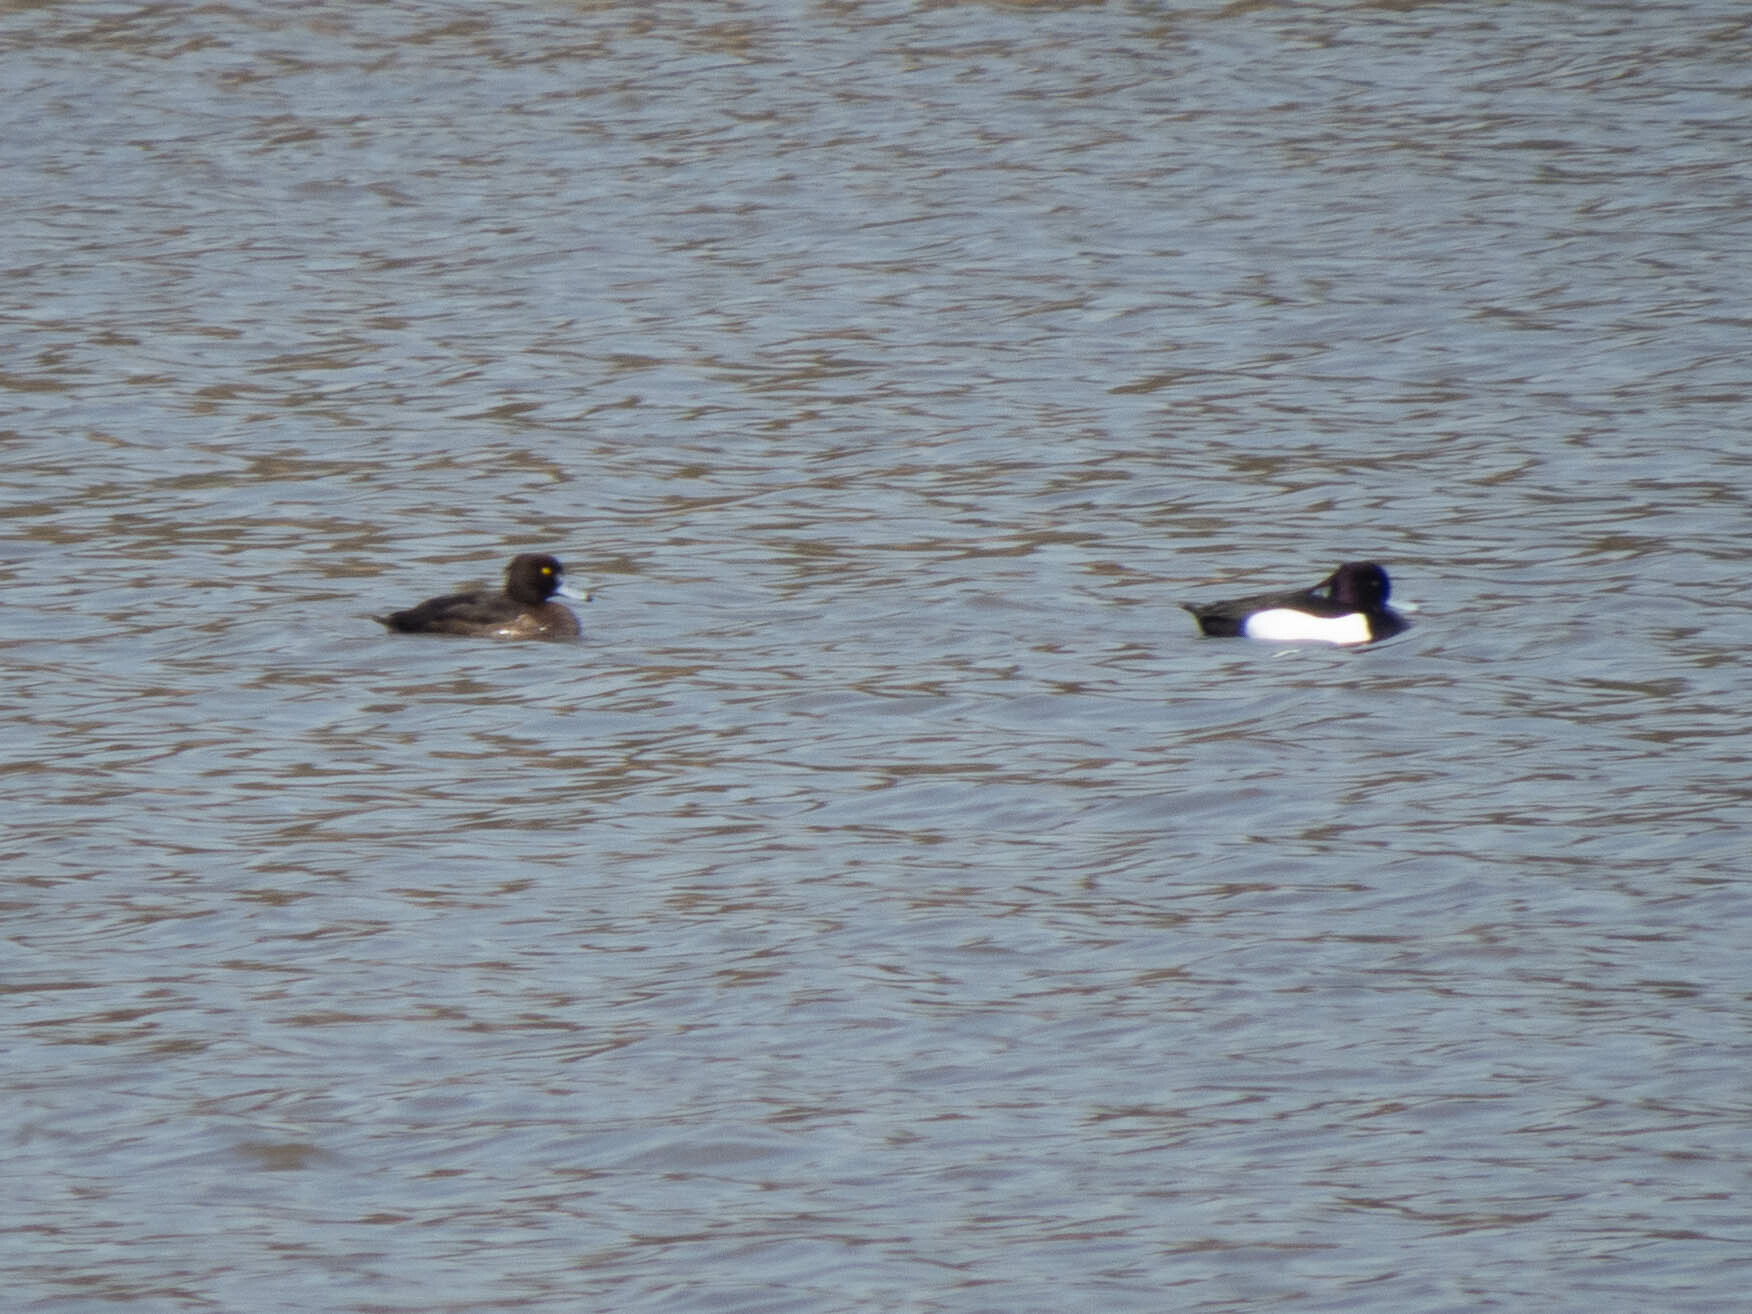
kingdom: Animalia
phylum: Chordata
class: Aves
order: Anseriformes
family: Anatidae
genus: Aythya
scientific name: Aythya fuligula
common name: Tufted duck
